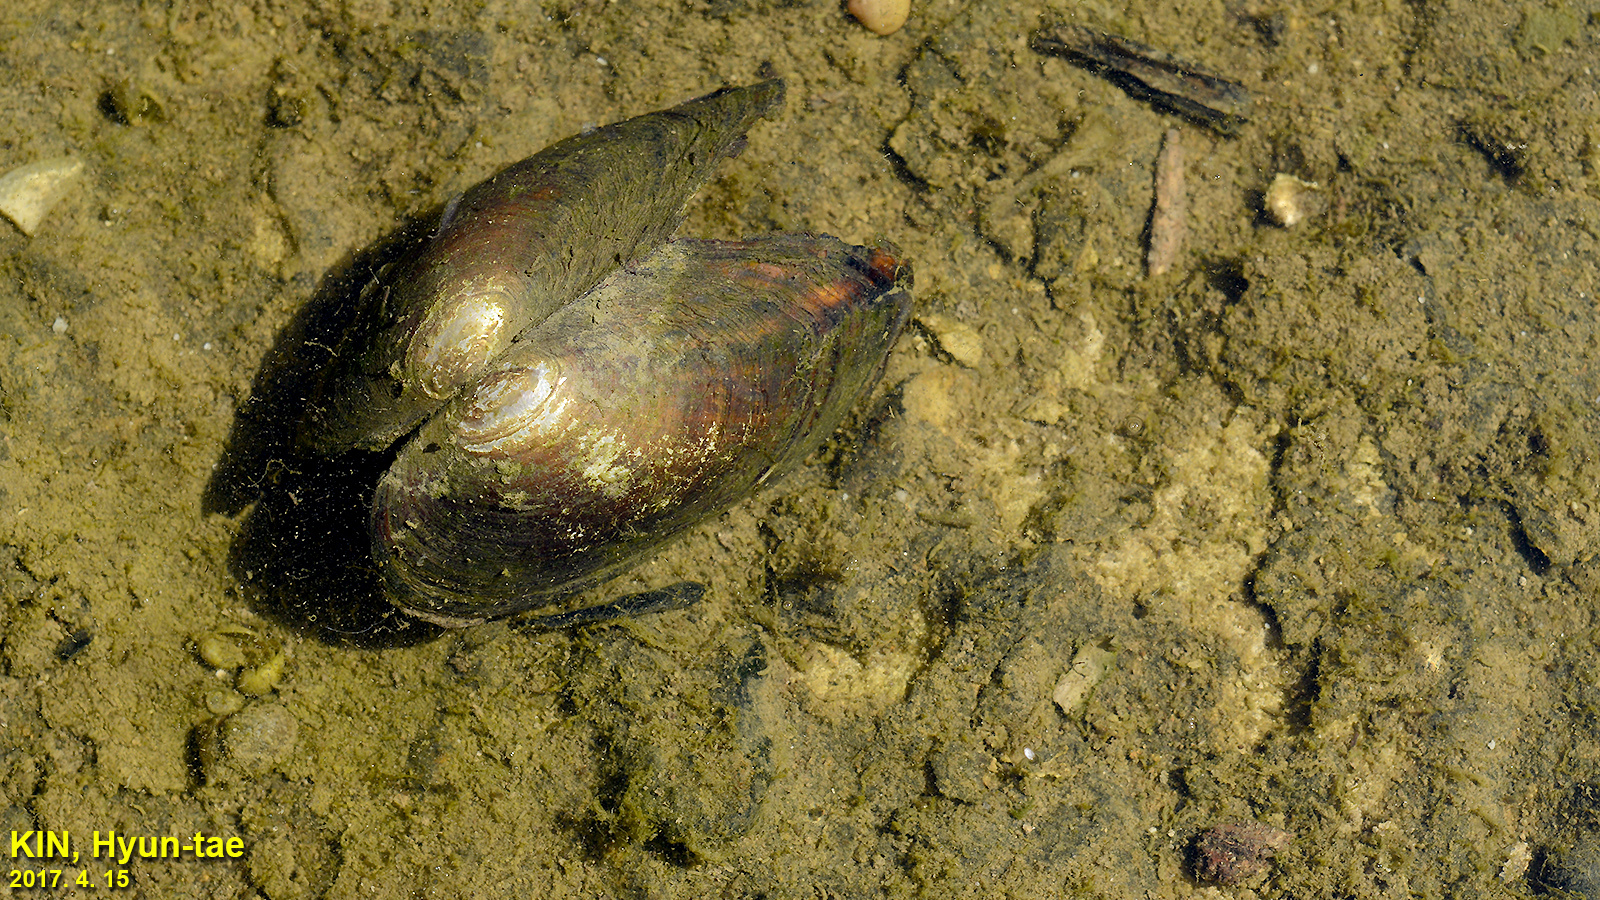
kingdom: Animalia
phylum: Mollusca
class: Bivalvia
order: Unionida
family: Unionidae
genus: Sinanodonta
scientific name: Sinanodonta lauta
